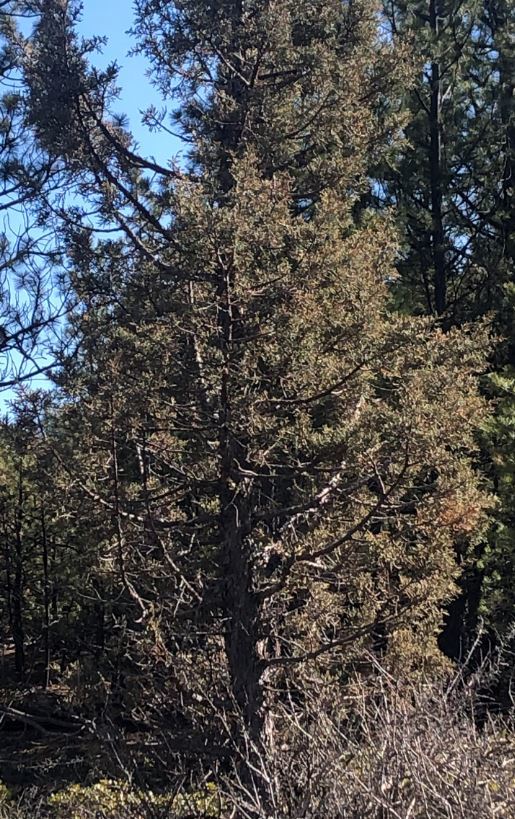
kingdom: Plantae
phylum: Tracheophyta
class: Pinopsida
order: Pinales
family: Cupressaceae
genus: Juniperus
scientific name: Juniperus occidentalis
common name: Western juniper
